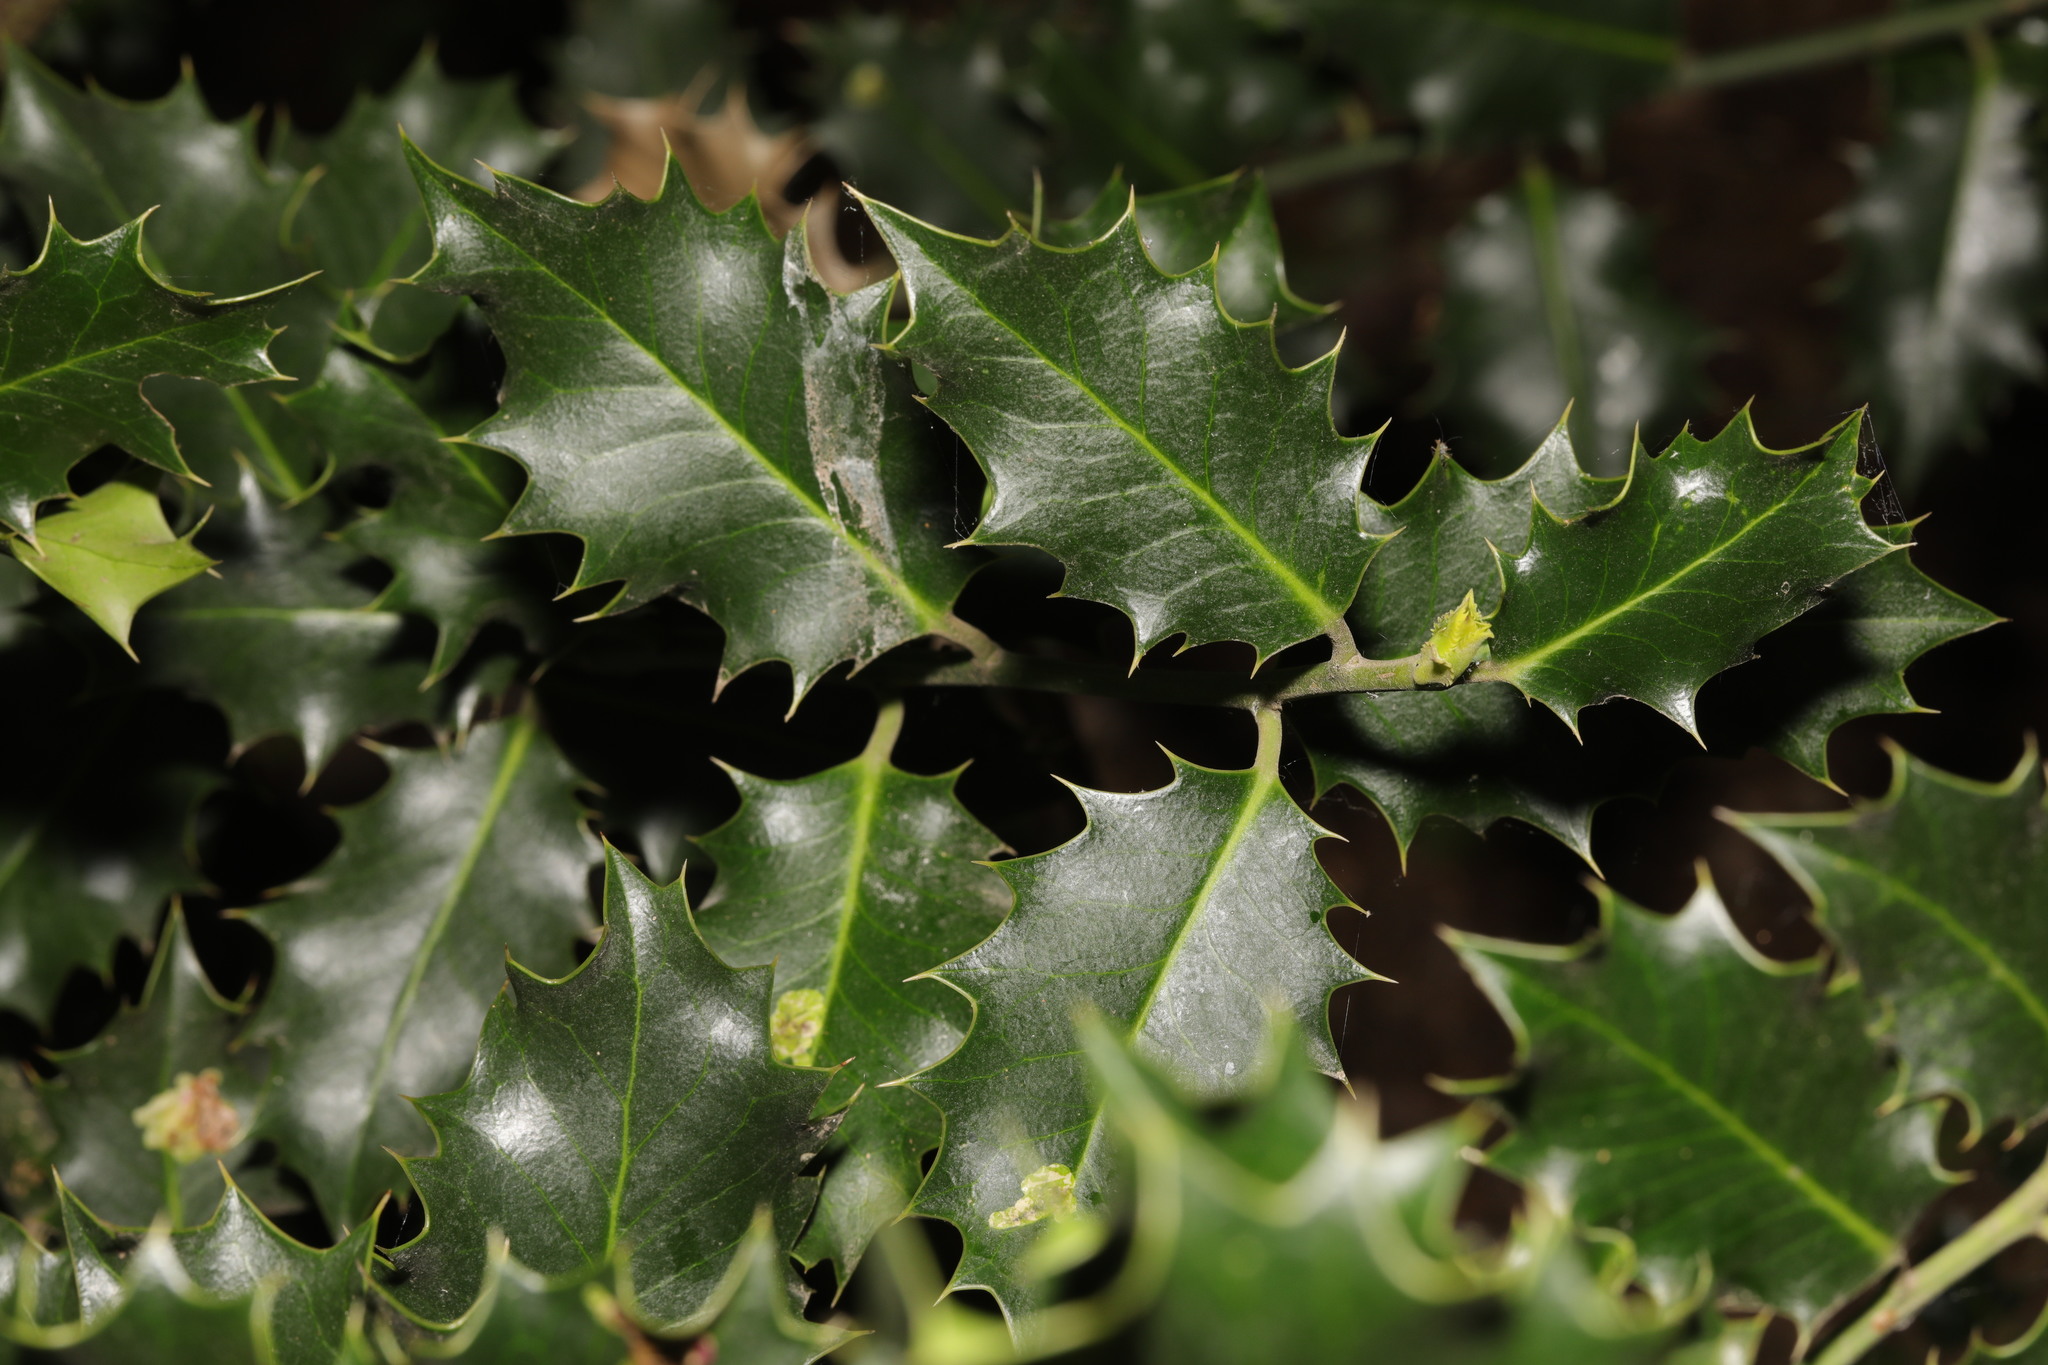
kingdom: Plantae
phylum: Tracheophyta
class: Magnoliopsida
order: Aquifoliales
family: Aquifoliaceae
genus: Ilex
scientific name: Ilex aquifolium
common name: English holly
